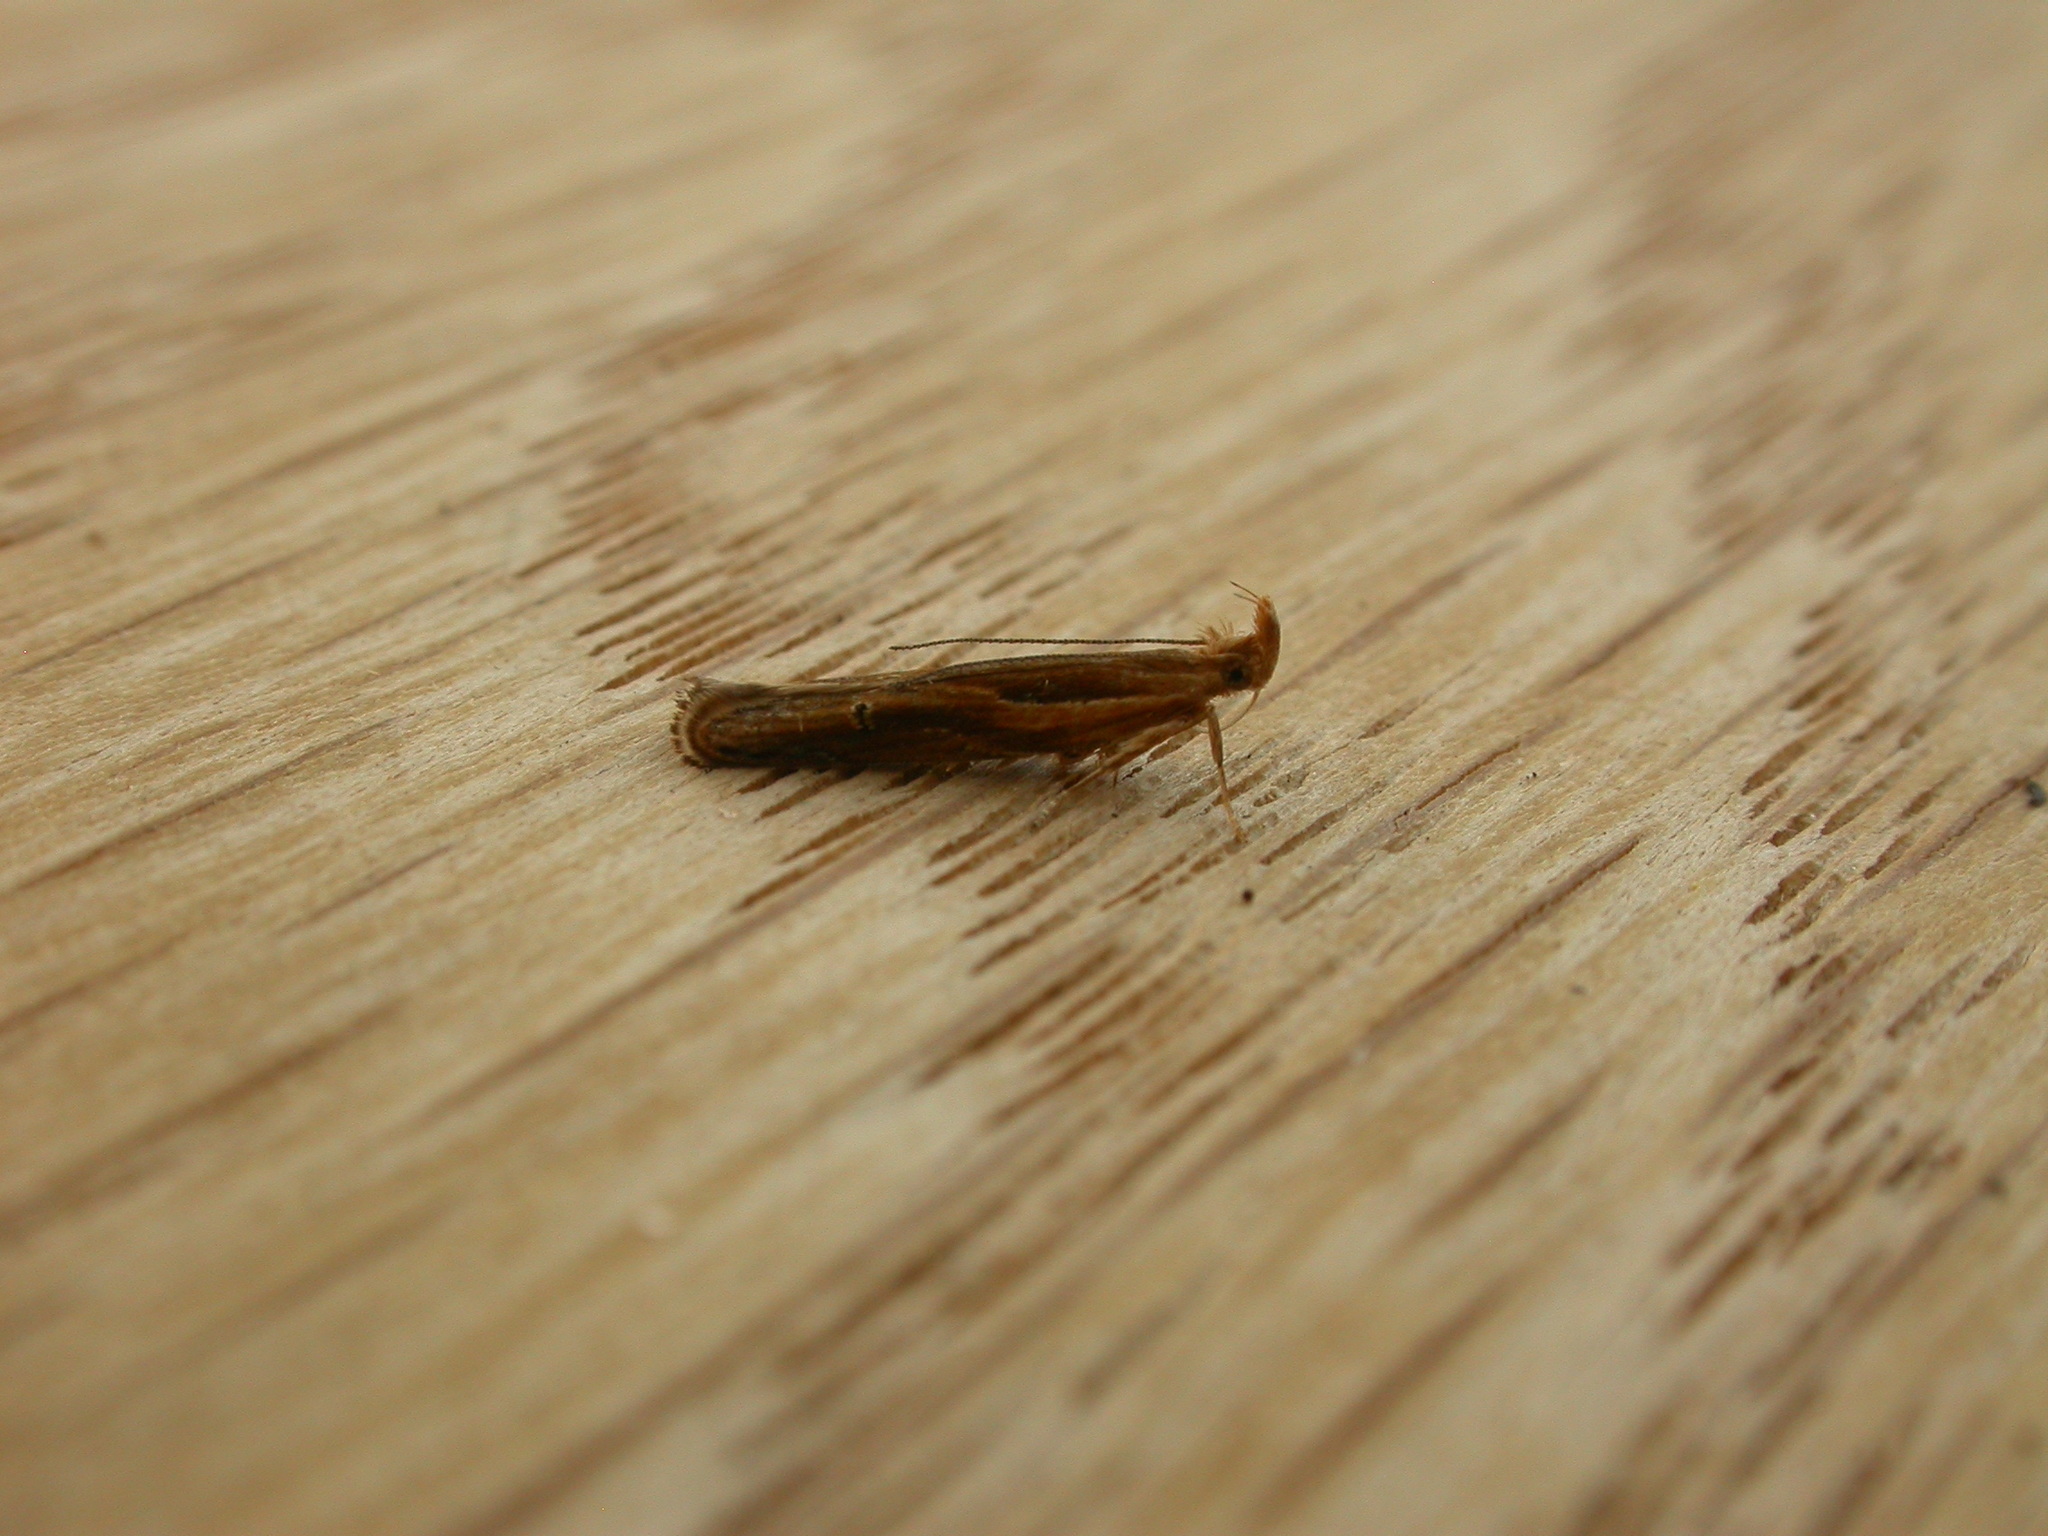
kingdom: Animalia
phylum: Arthropoda
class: Insecta
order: Lepidoptera
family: Depressariidae
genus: Eutorna
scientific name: Eutorna tricasis
